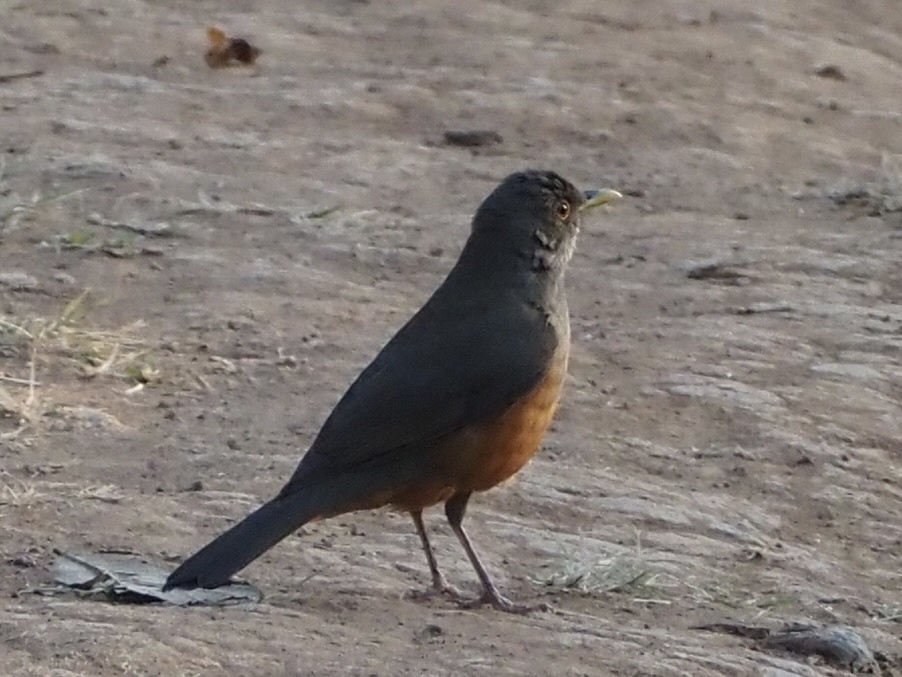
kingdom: Animalia
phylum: Chordata
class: Aves
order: Passeriformes
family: Turdidae
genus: Turdus
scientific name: Turdus rufiventris
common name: Rufous-bellied thrush
